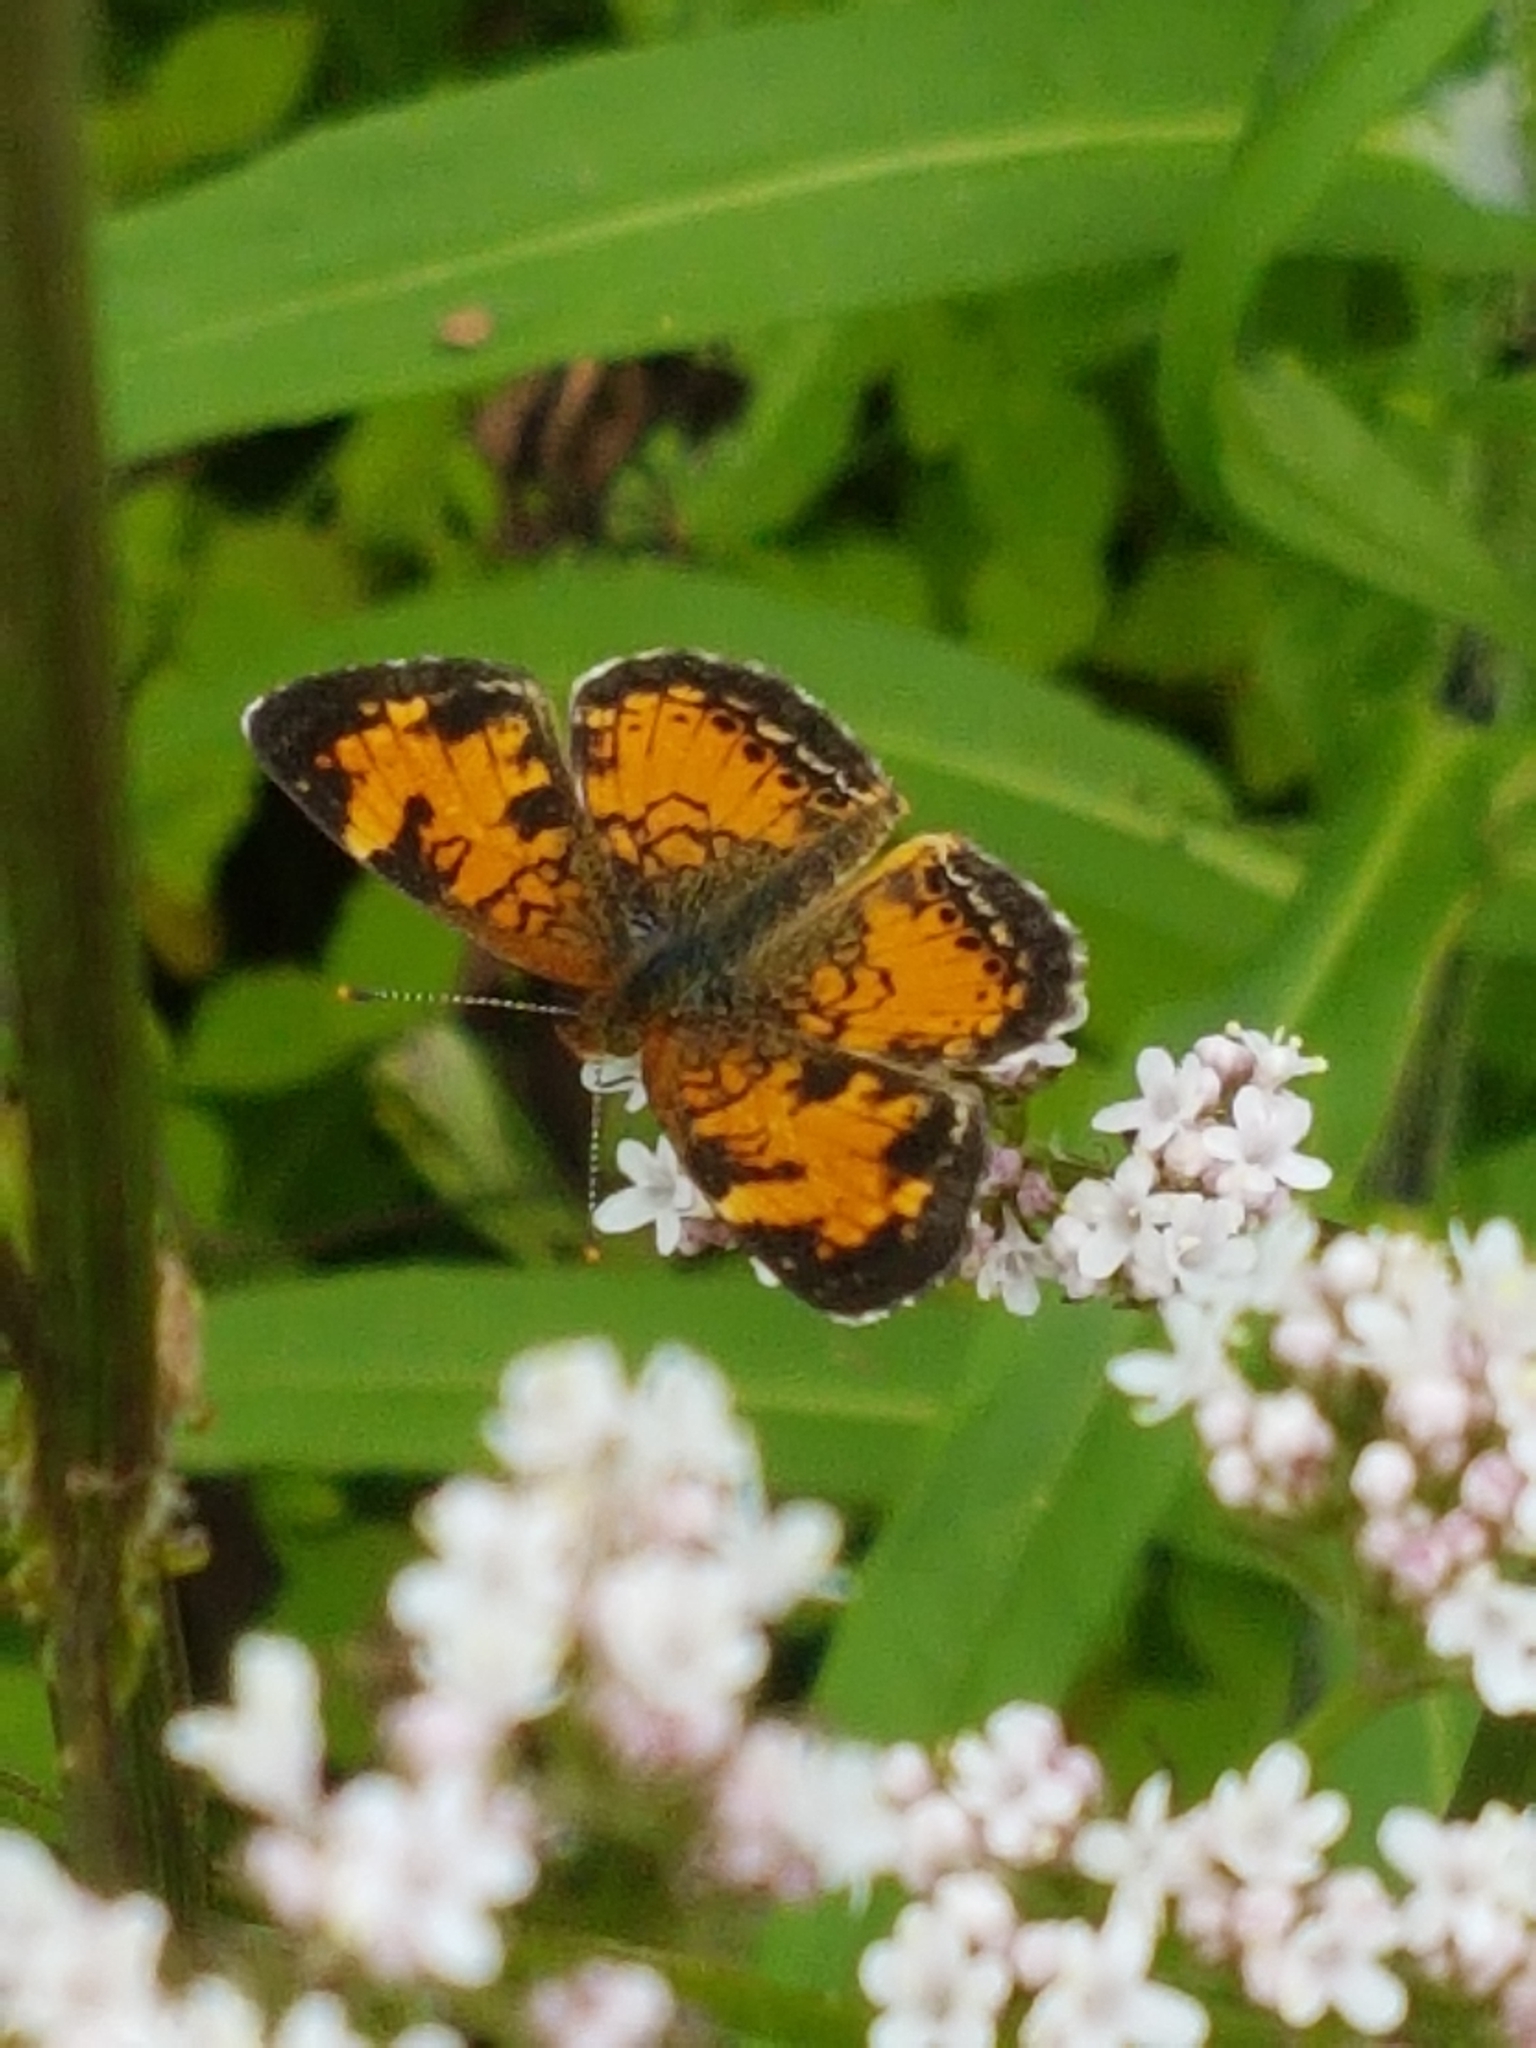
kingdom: Animalia
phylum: Arthropoda
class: Insecta
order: Lepidoptera
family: Nymphalidae
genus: Phyciodes
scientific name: Phyciodes tharos
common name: Pearl crescent
